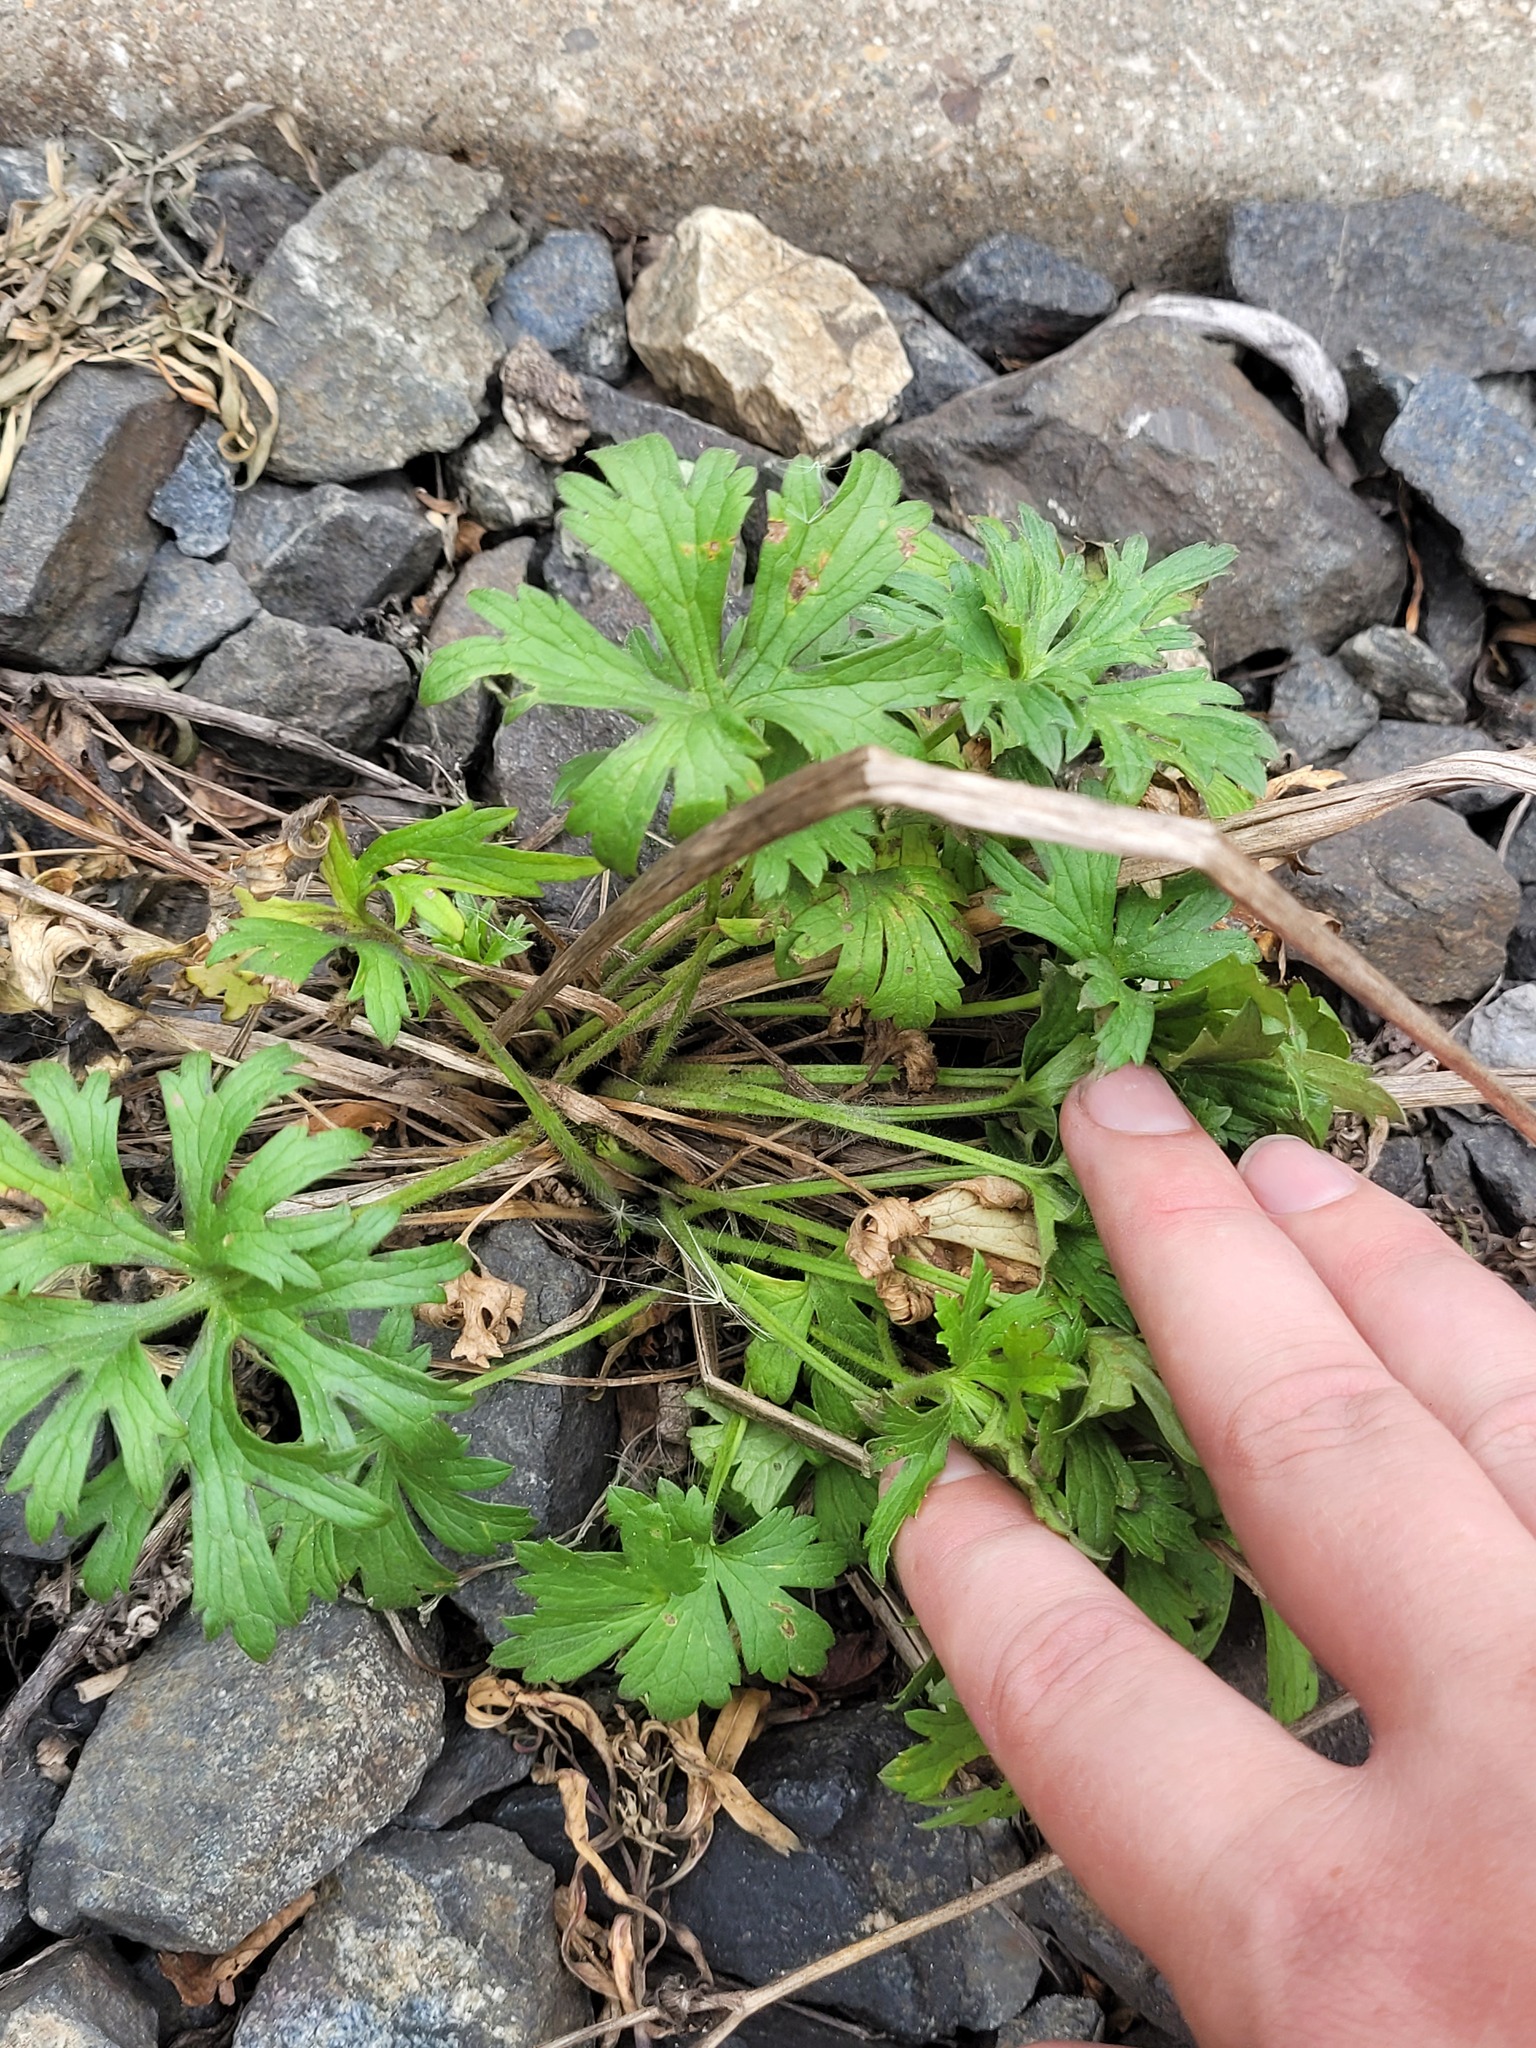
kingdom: Plantae
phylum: Tracheophyta
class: Magnoliopsida
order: Ranunculales
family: Ranunculaceae
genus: Ranunculus
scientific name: Ranunculus polyanthemos
